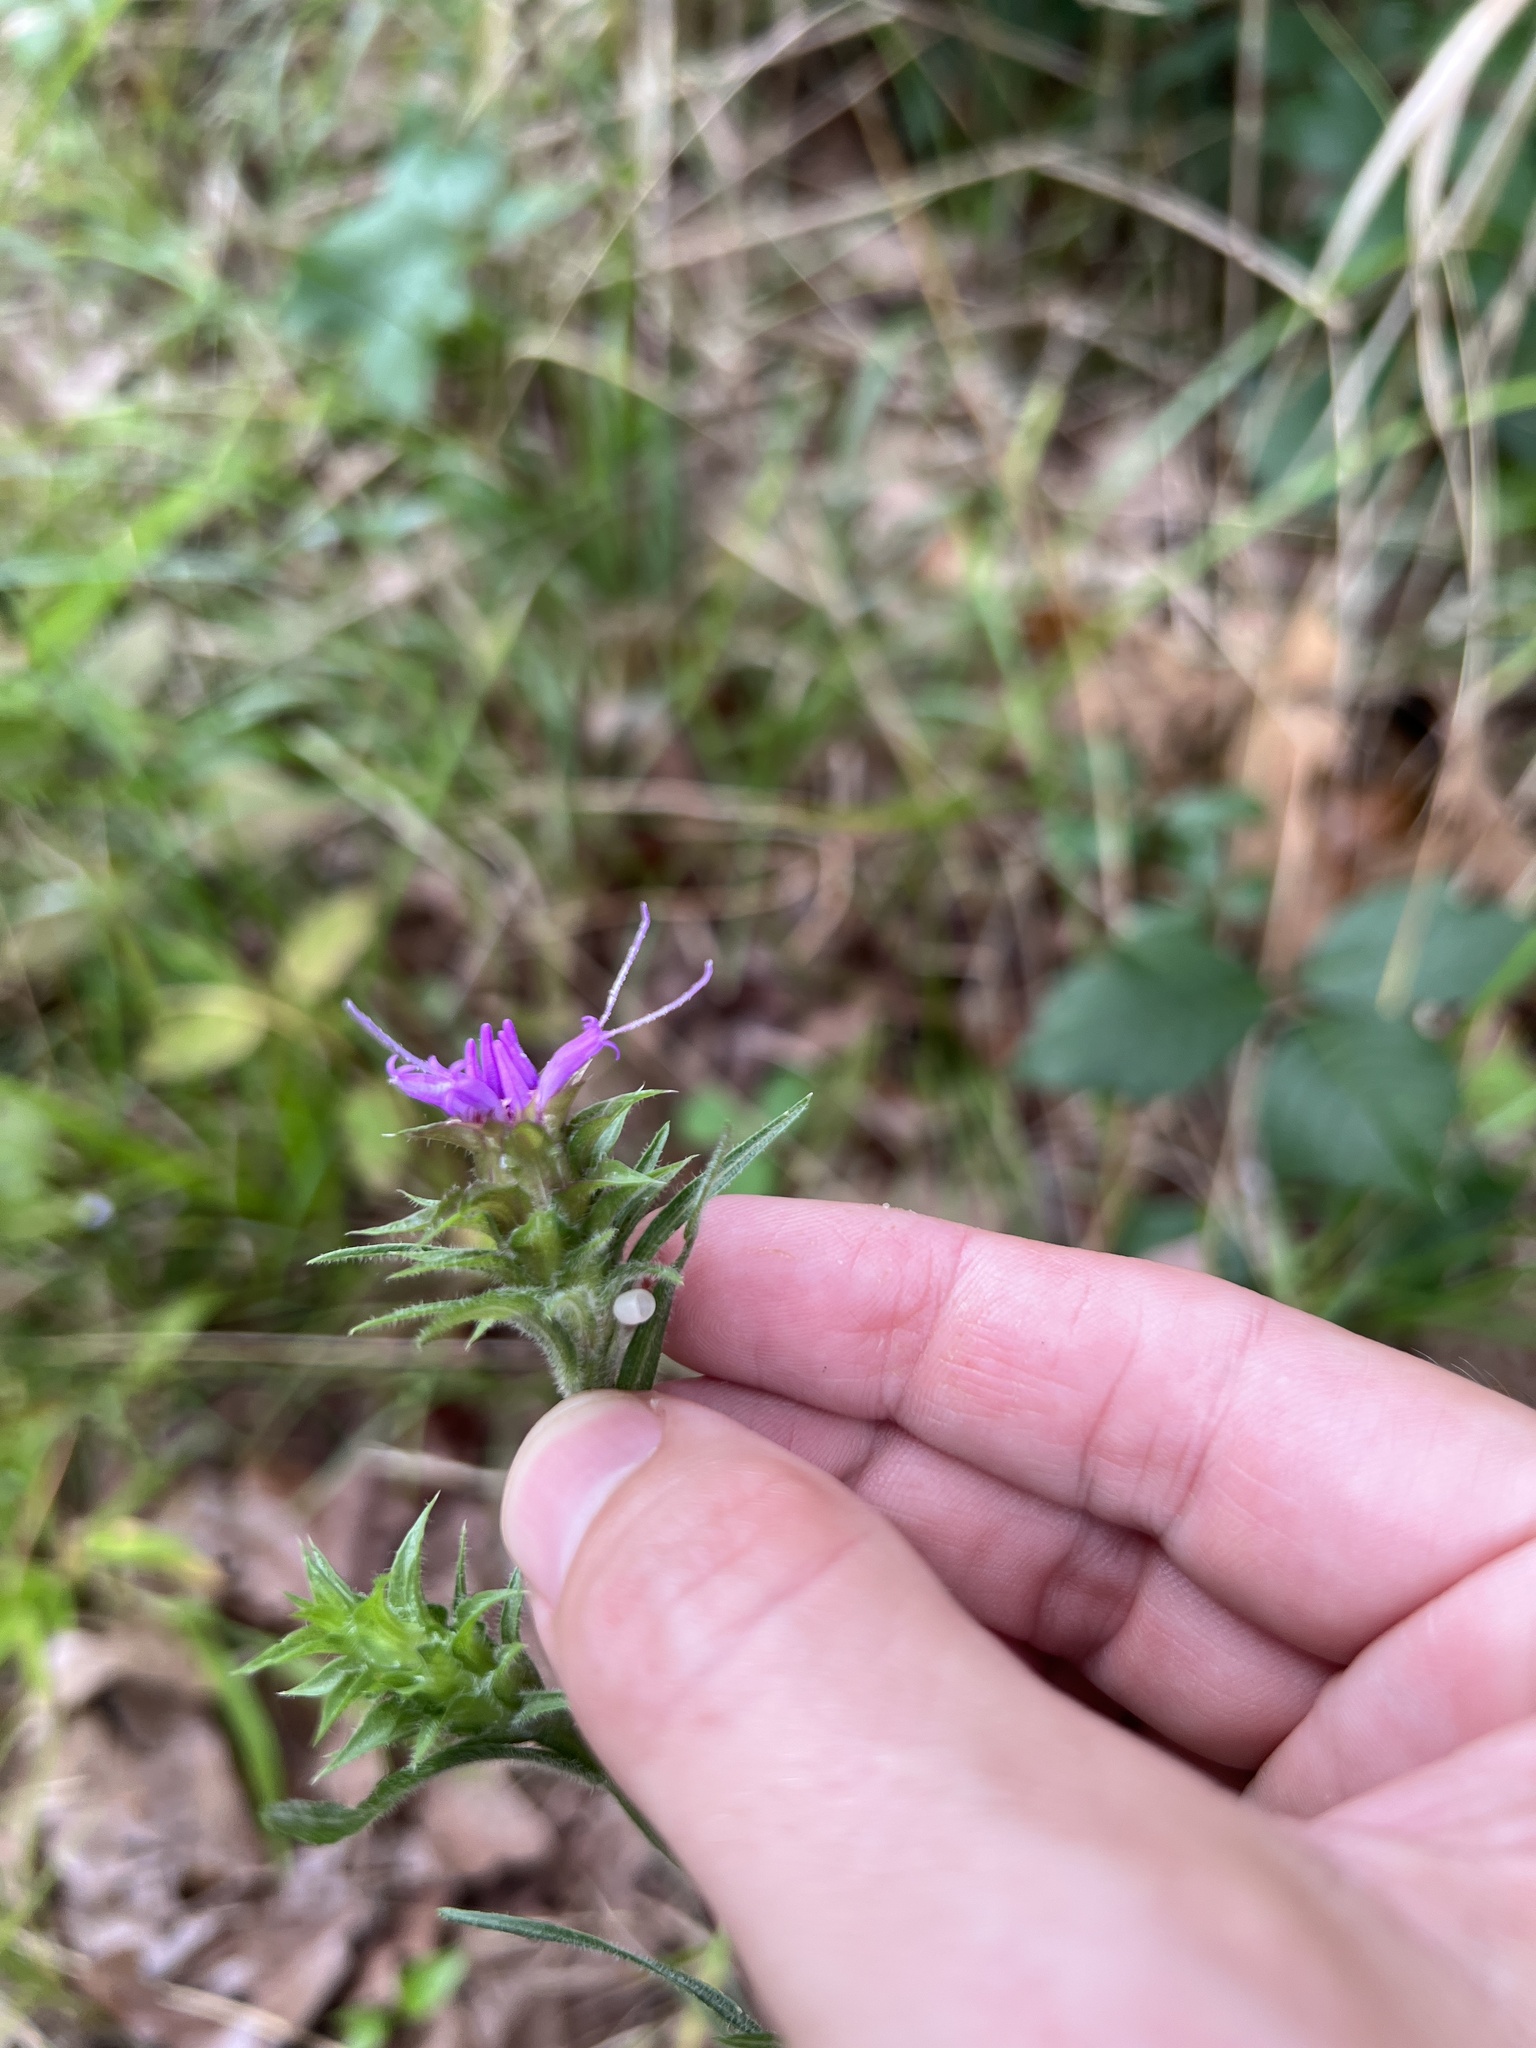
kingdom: Plantae
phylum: Tracheophyta
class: Magnoliopsida
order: Asterales
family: Asteraceae
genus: Liatris
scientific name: Liatris squarrosa
